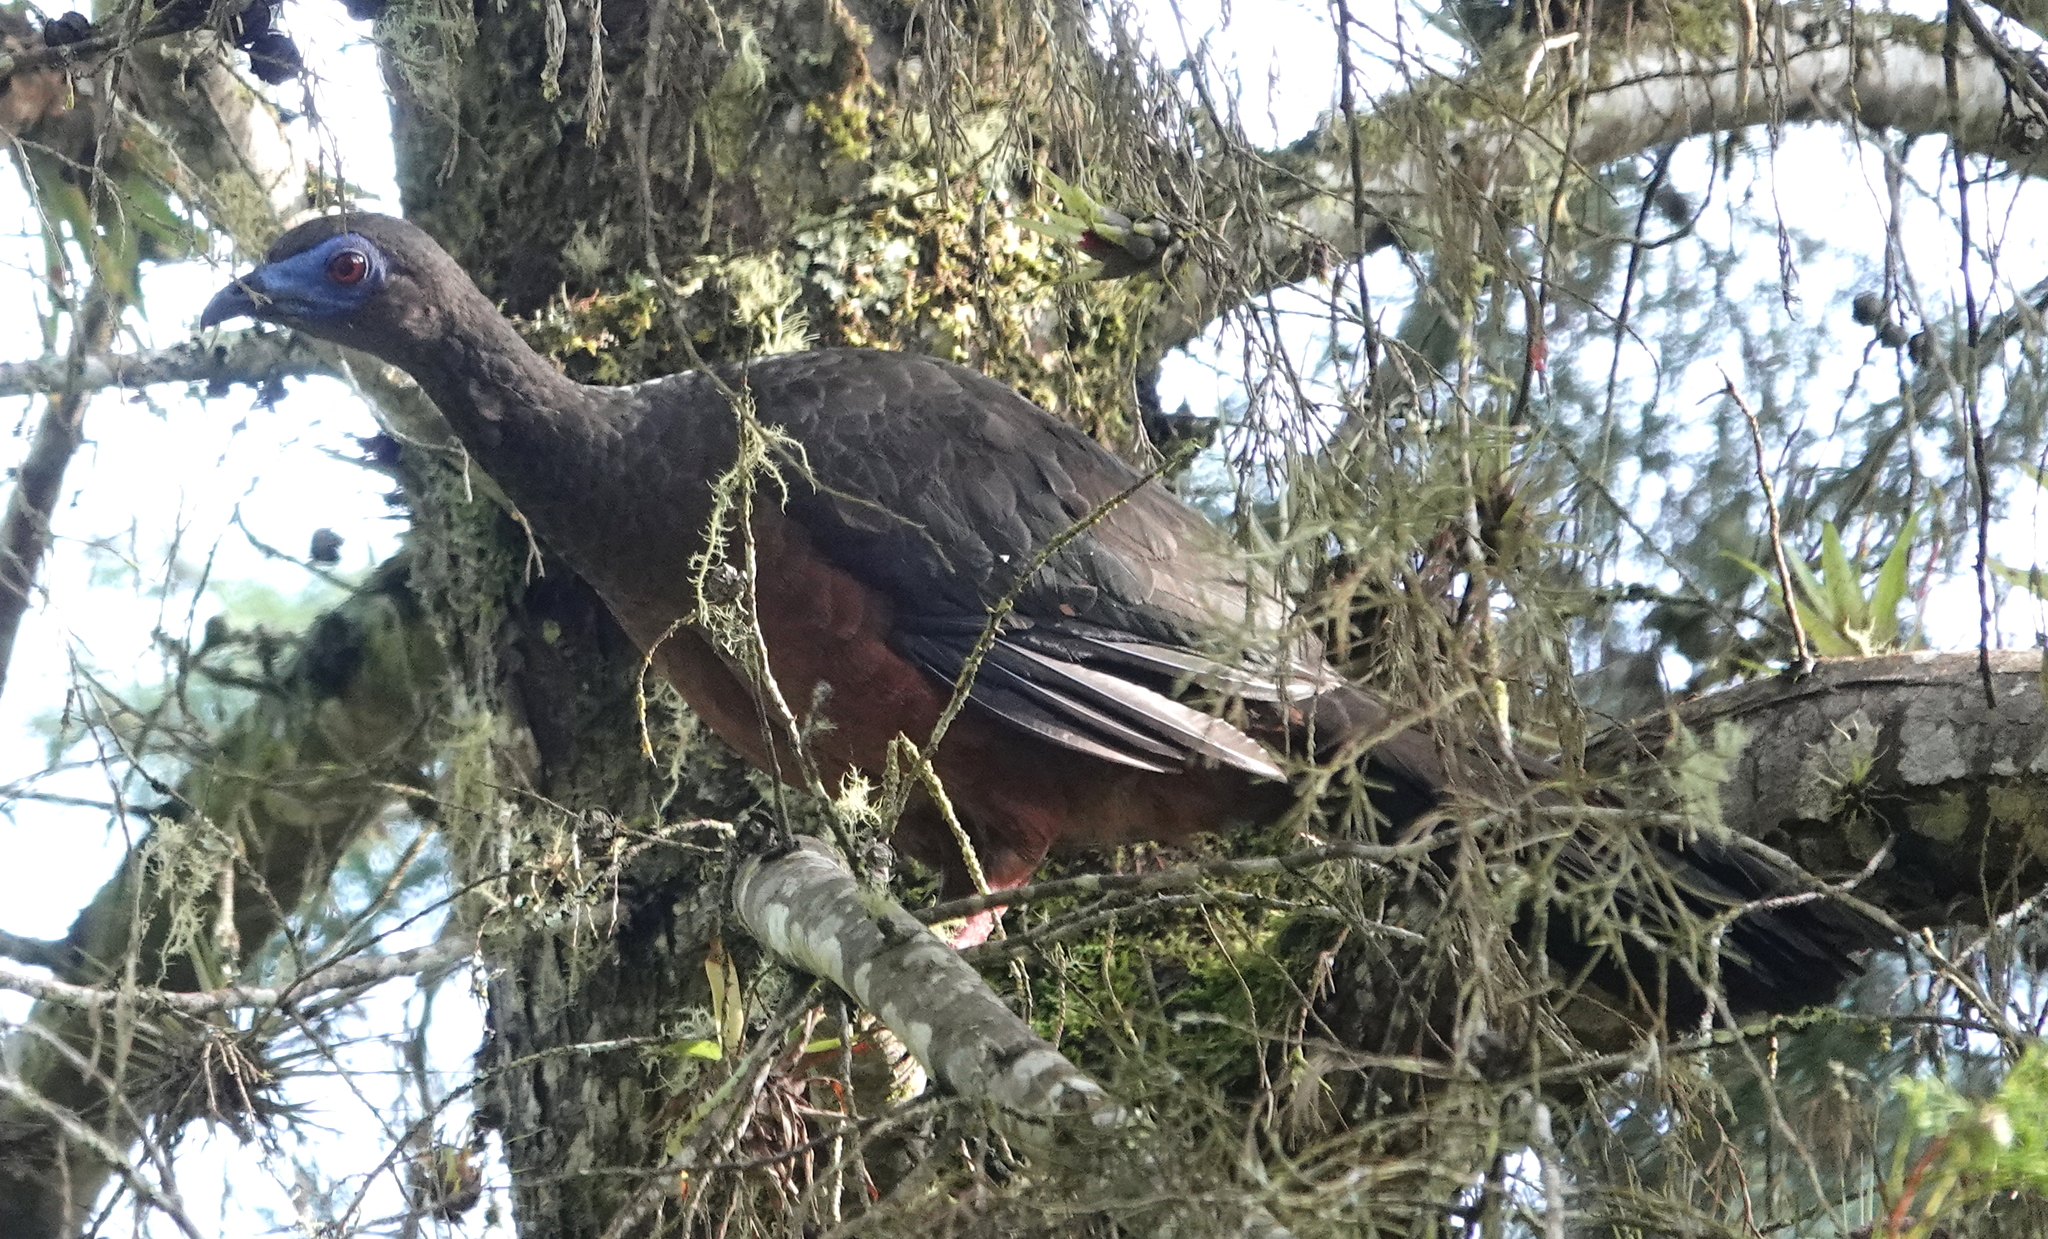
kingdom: Animalia
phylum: Chordata
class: Aves
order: Galliformes
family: Cracidae
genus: Chamaepetes
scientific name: Chamaepetes goudotii
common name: Sickle-winged guan
